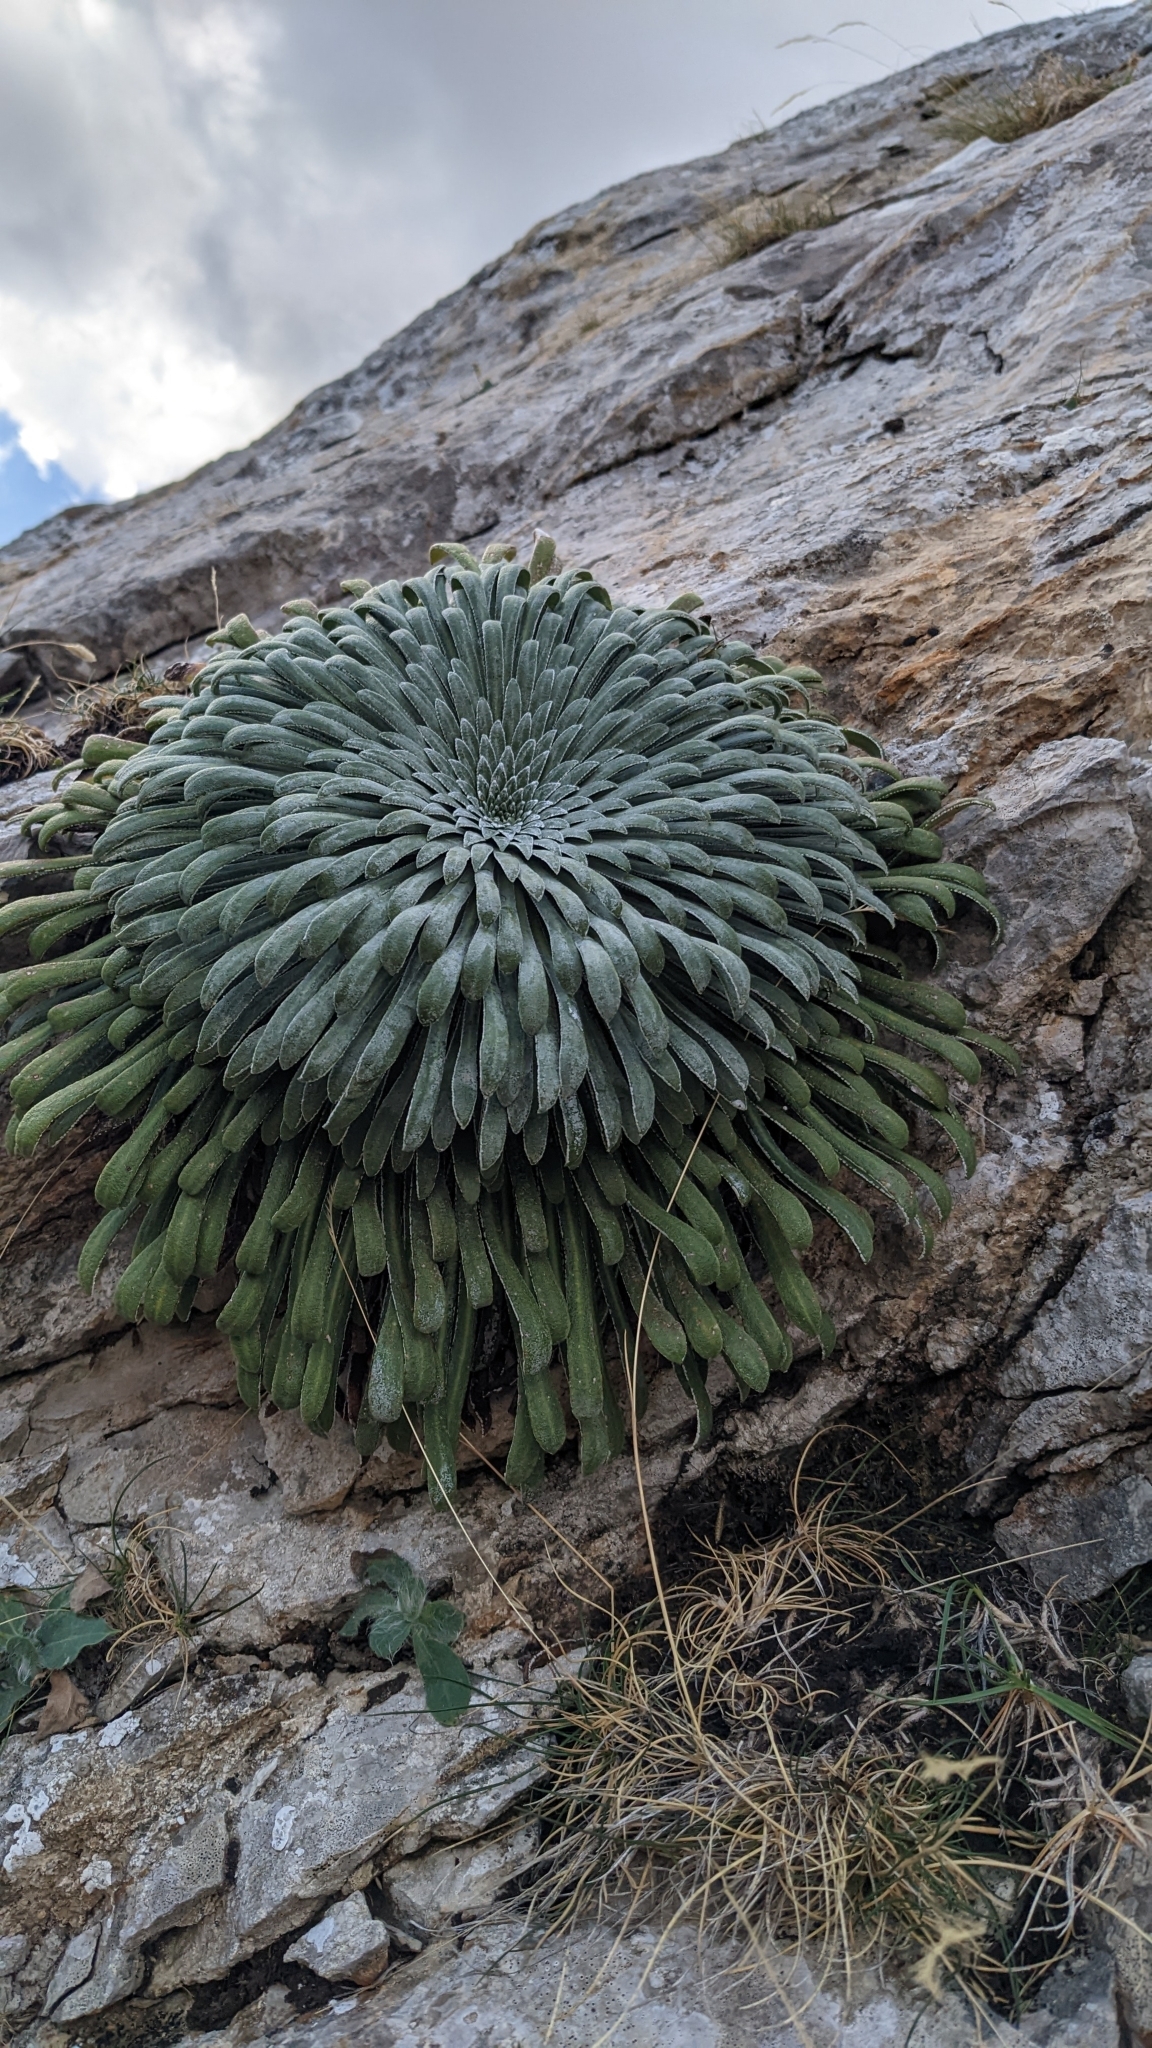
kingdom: Plantae
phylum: Tracheophyta
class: Magnoliopsida
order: Saxifragales
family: Saxifragaceae
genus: Saxifraga
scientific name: Saxifraga longifolia
